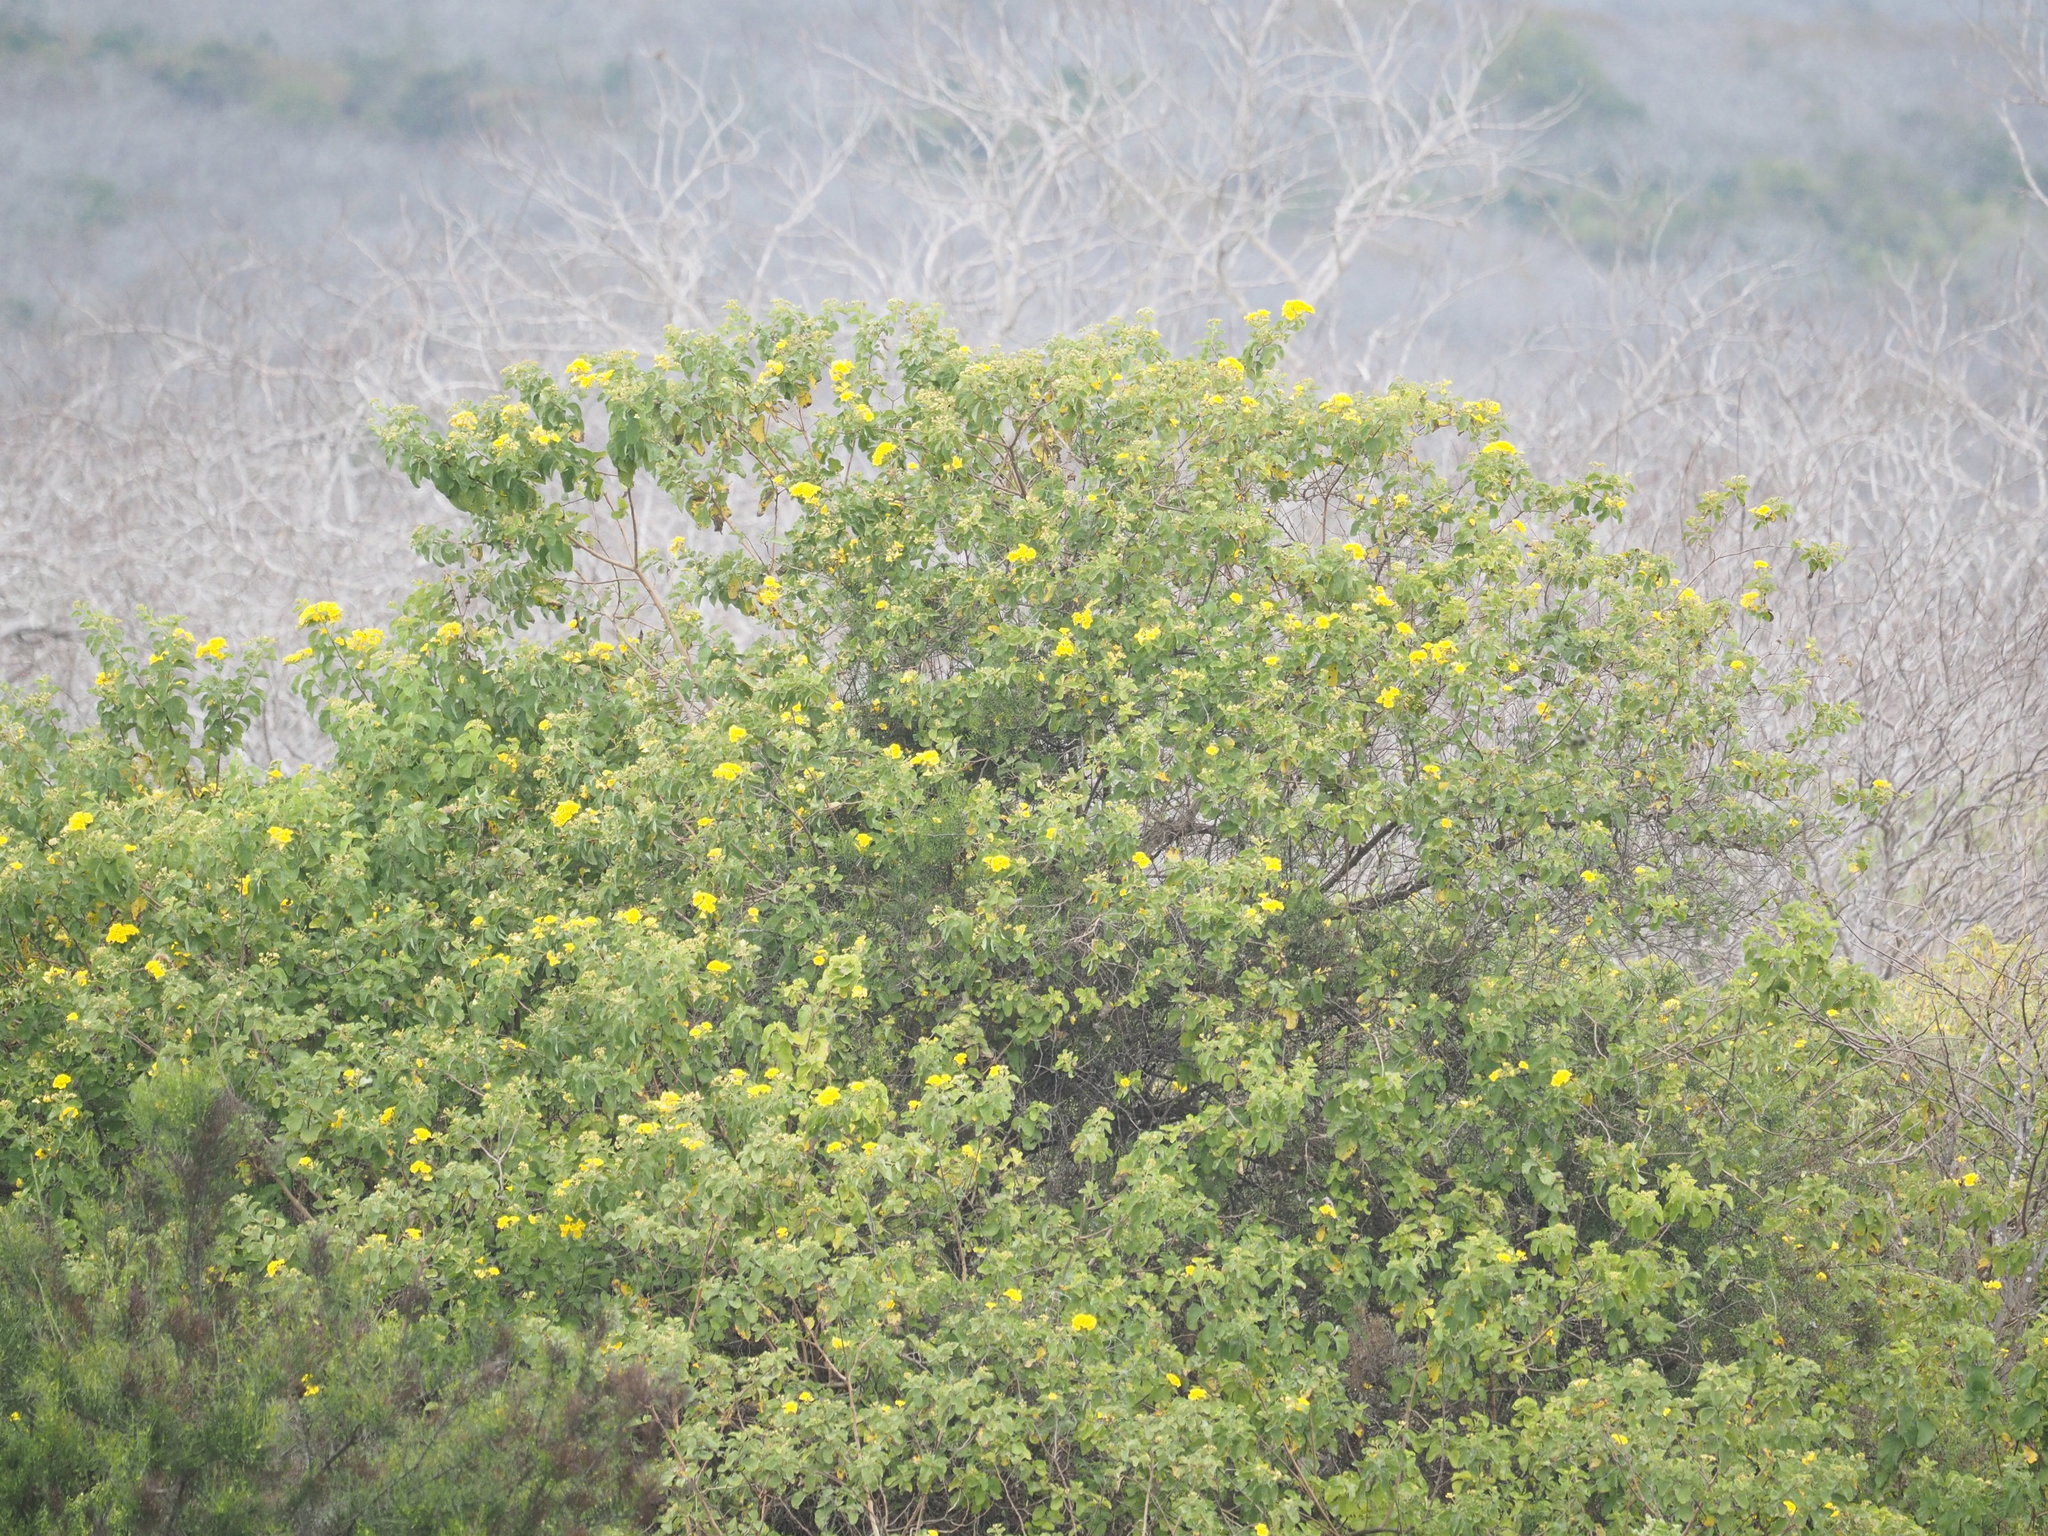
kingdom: Plantae
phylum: Tracheophyta
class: Magnoliopsida
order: Boraginales
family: Cordiaceae
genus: Cordia
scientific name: Cordia lutea
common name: Yellow geiger
